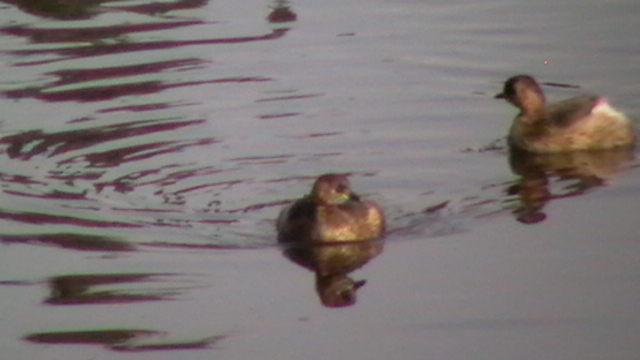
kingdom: Animalia
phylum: Chordata
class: Aves
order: Podicipediformes
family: Podicipedidae
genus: Tachybaptus
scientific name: Tachybaptus ruficollis
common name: Little grebe
